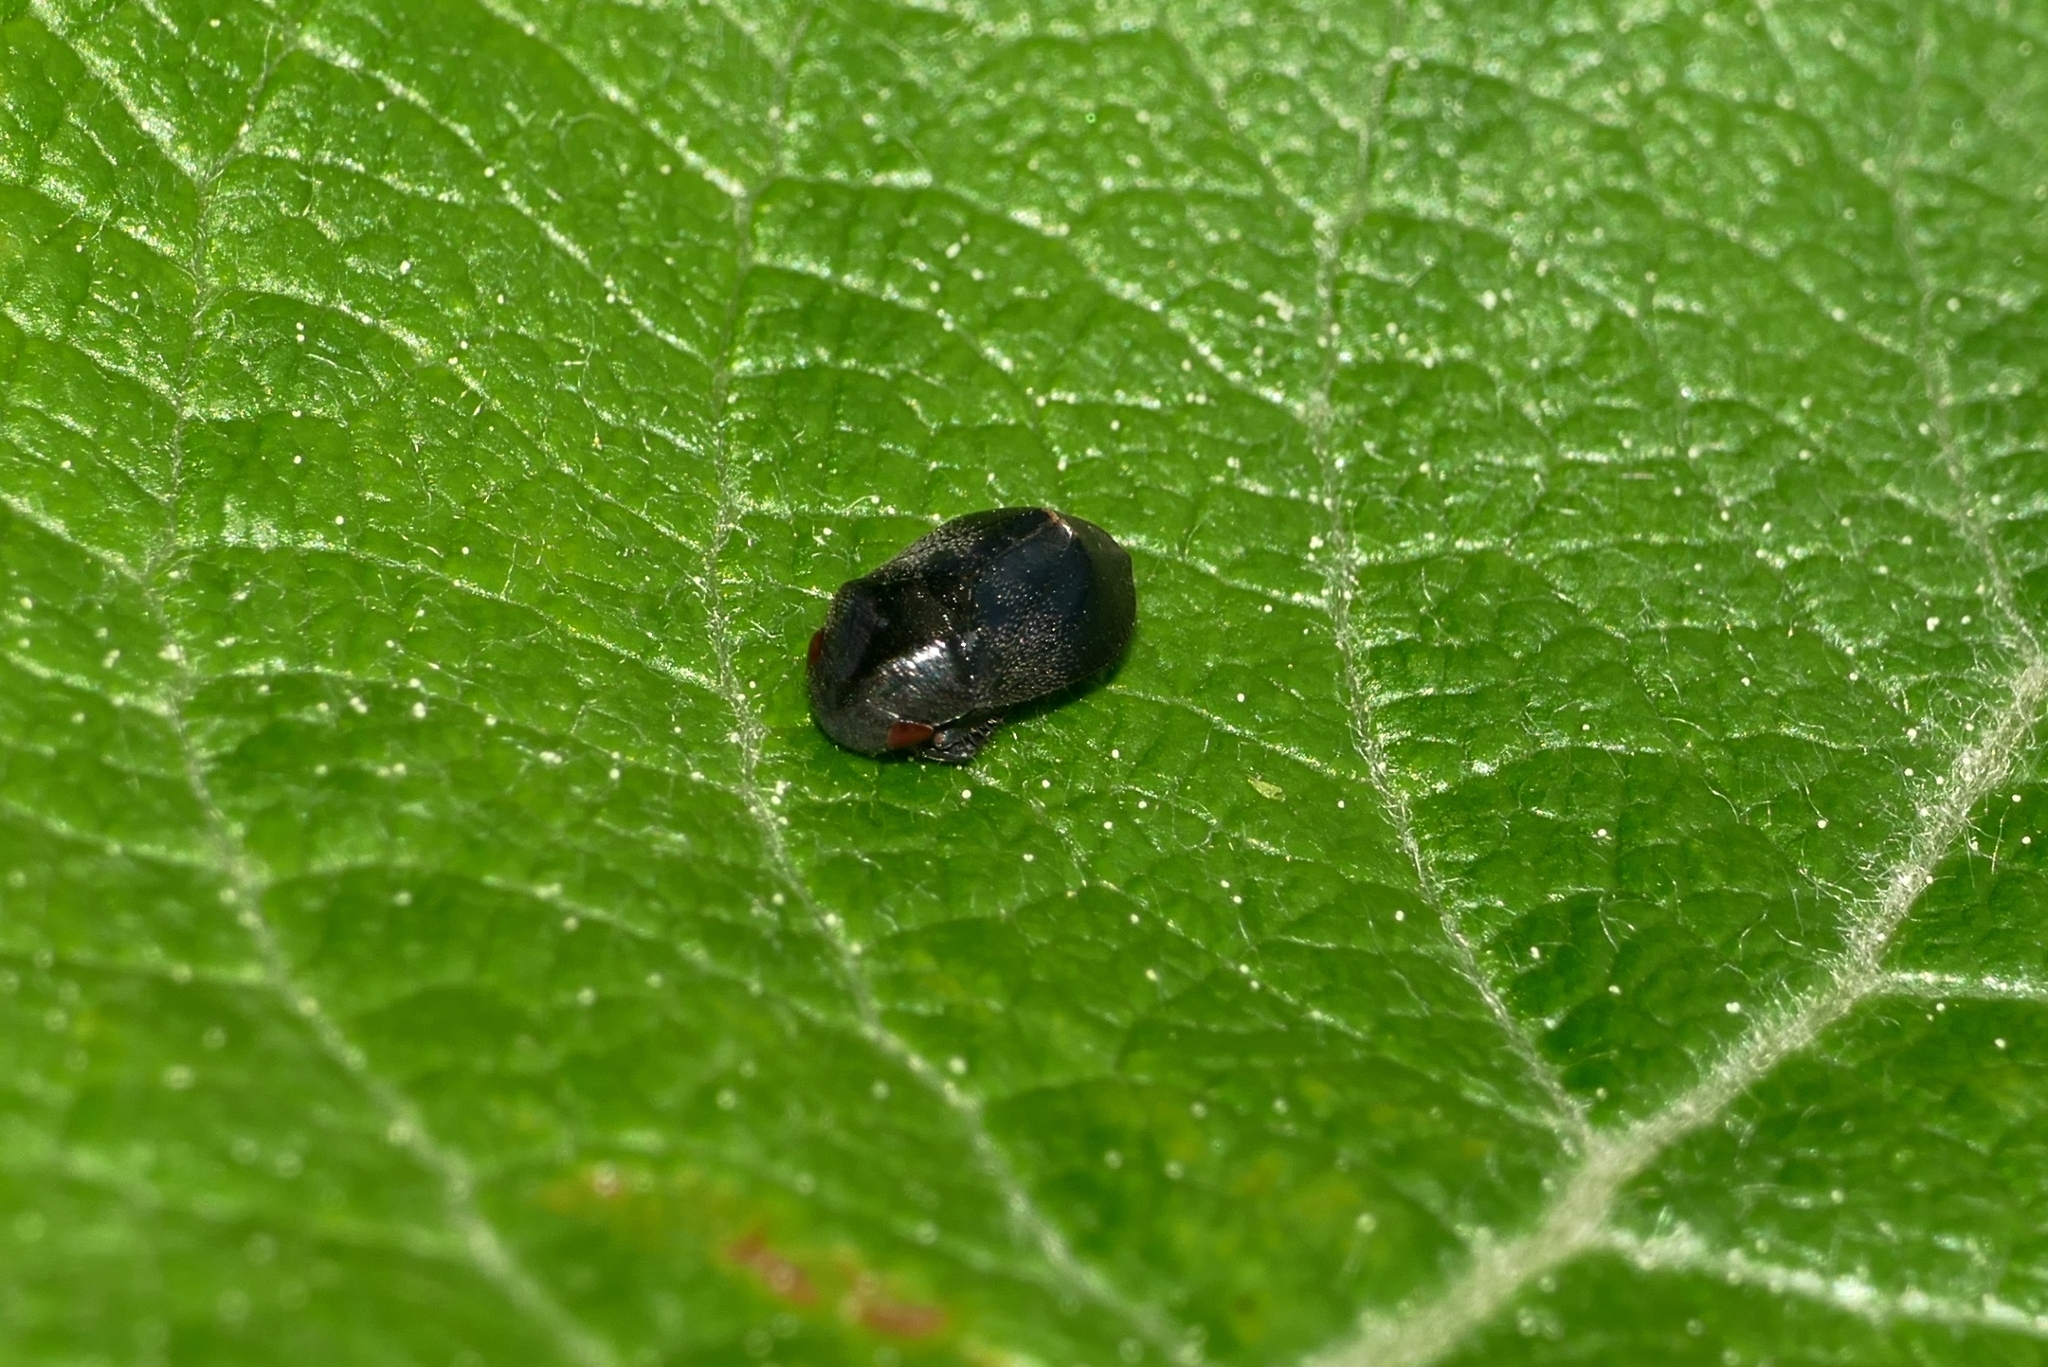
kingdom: Animalia
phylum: Arthropoda
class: Insecta
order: Hemiptera
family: Cicadellidae
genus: Penthimia
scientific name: Penthimia nigra
